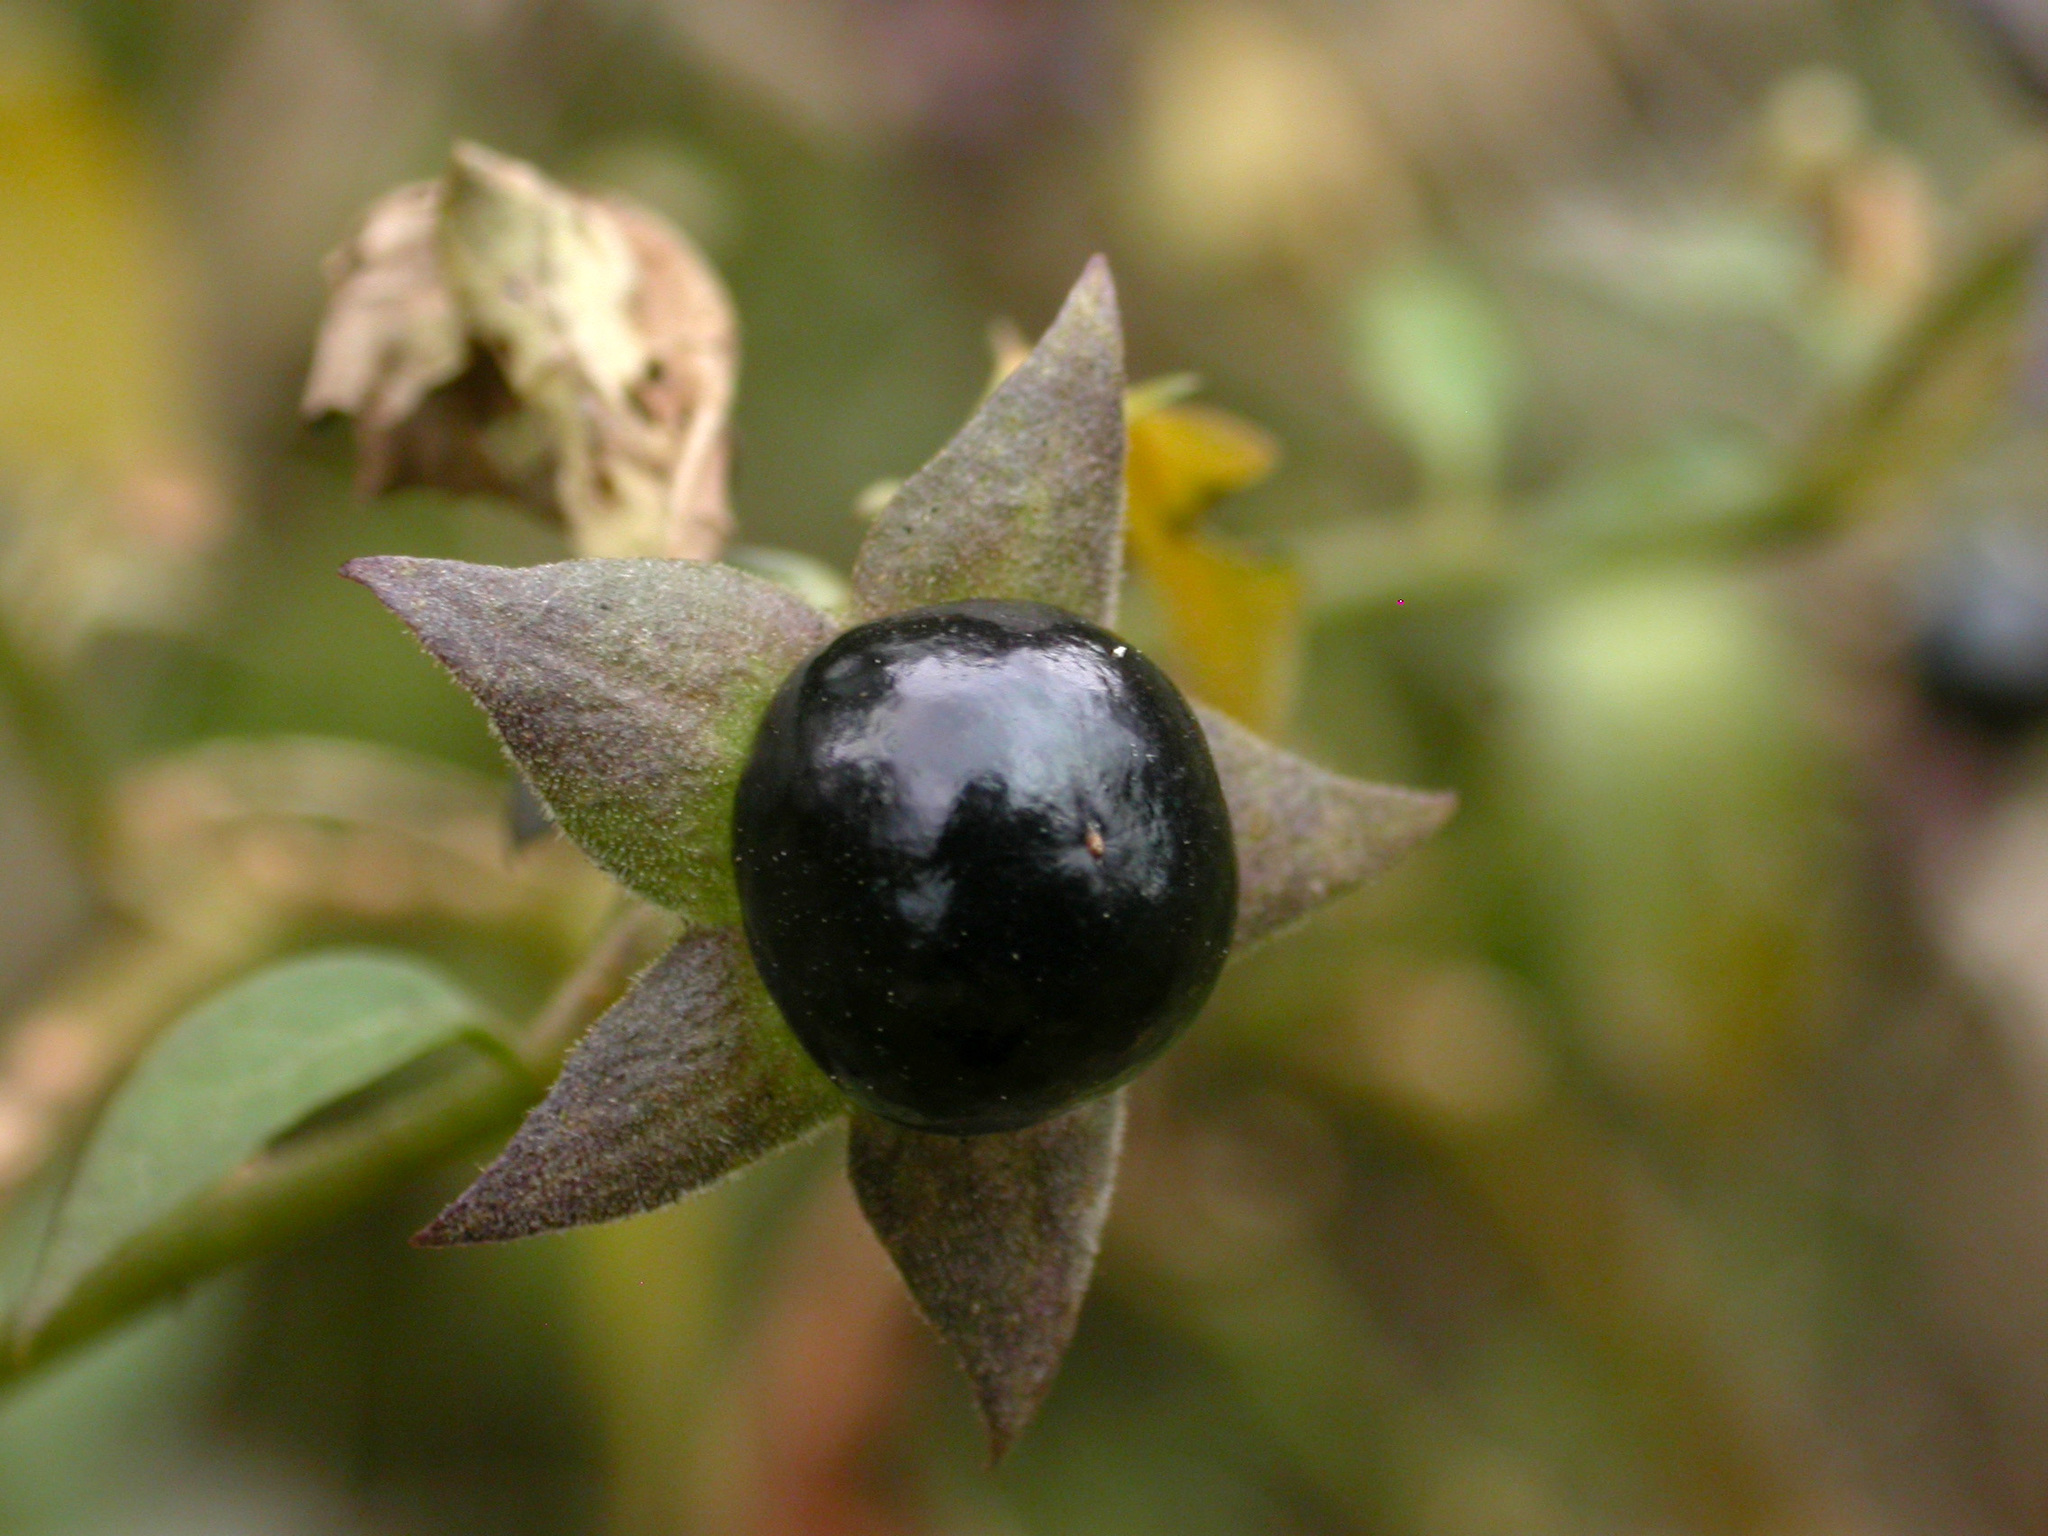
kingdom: Plantae
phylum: Tracheophyta
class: Magnoliopsida
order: Solanales
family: Solanaceae
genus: Atropa
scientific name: Atropa belladonna
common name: Deadly nightshade
